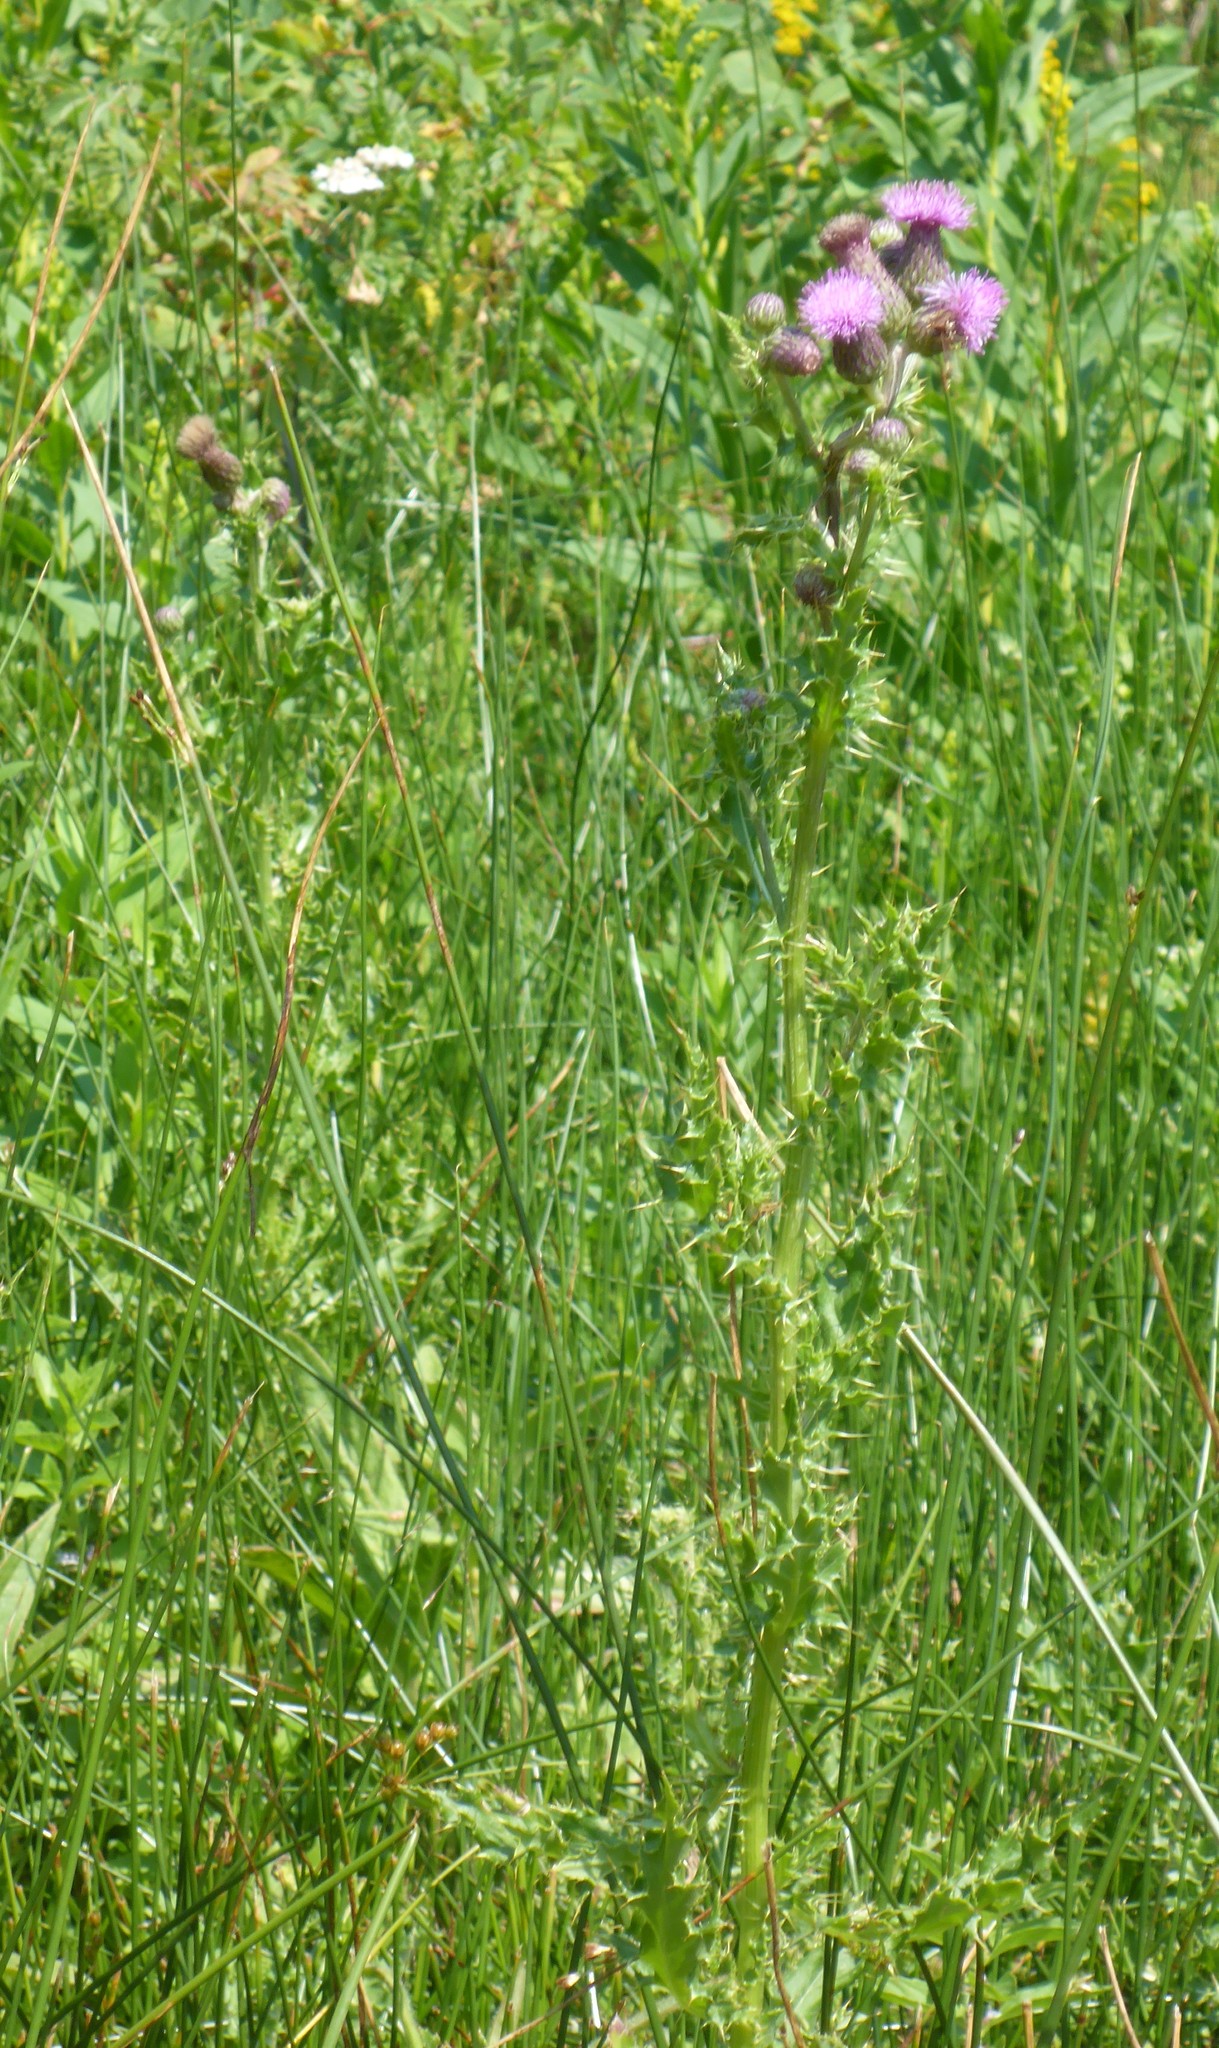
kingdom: Plantae
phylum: Tracheophyta
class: Magnoliopsida
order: Asterales
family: Asteraceae
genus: Cirsium
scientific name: Cirsium arvense
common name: Creeping thistle
